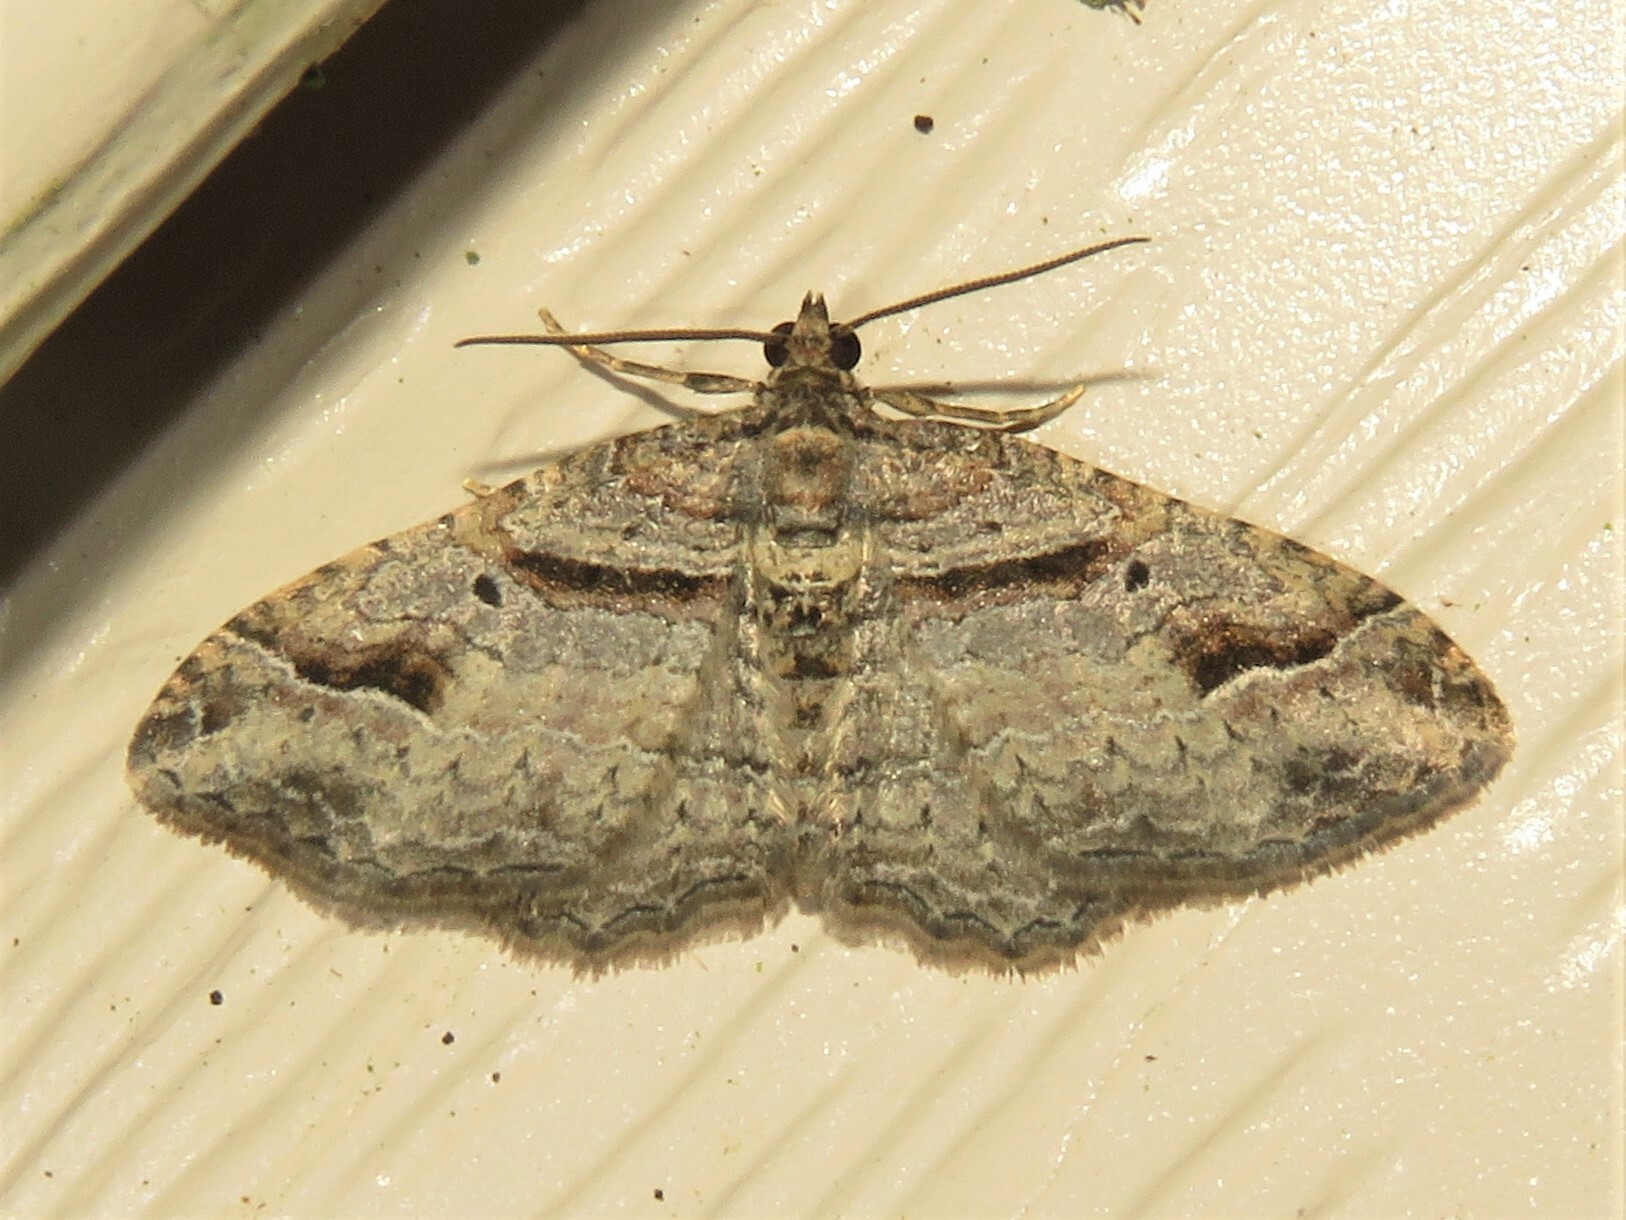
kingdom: Animalia
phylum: Arthropoda
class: Insecta
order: Lepidoptera
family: Geometridae
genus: Costaconvexa
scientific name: Costaconvexa centrostrigaria
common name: Bent-line carpet
